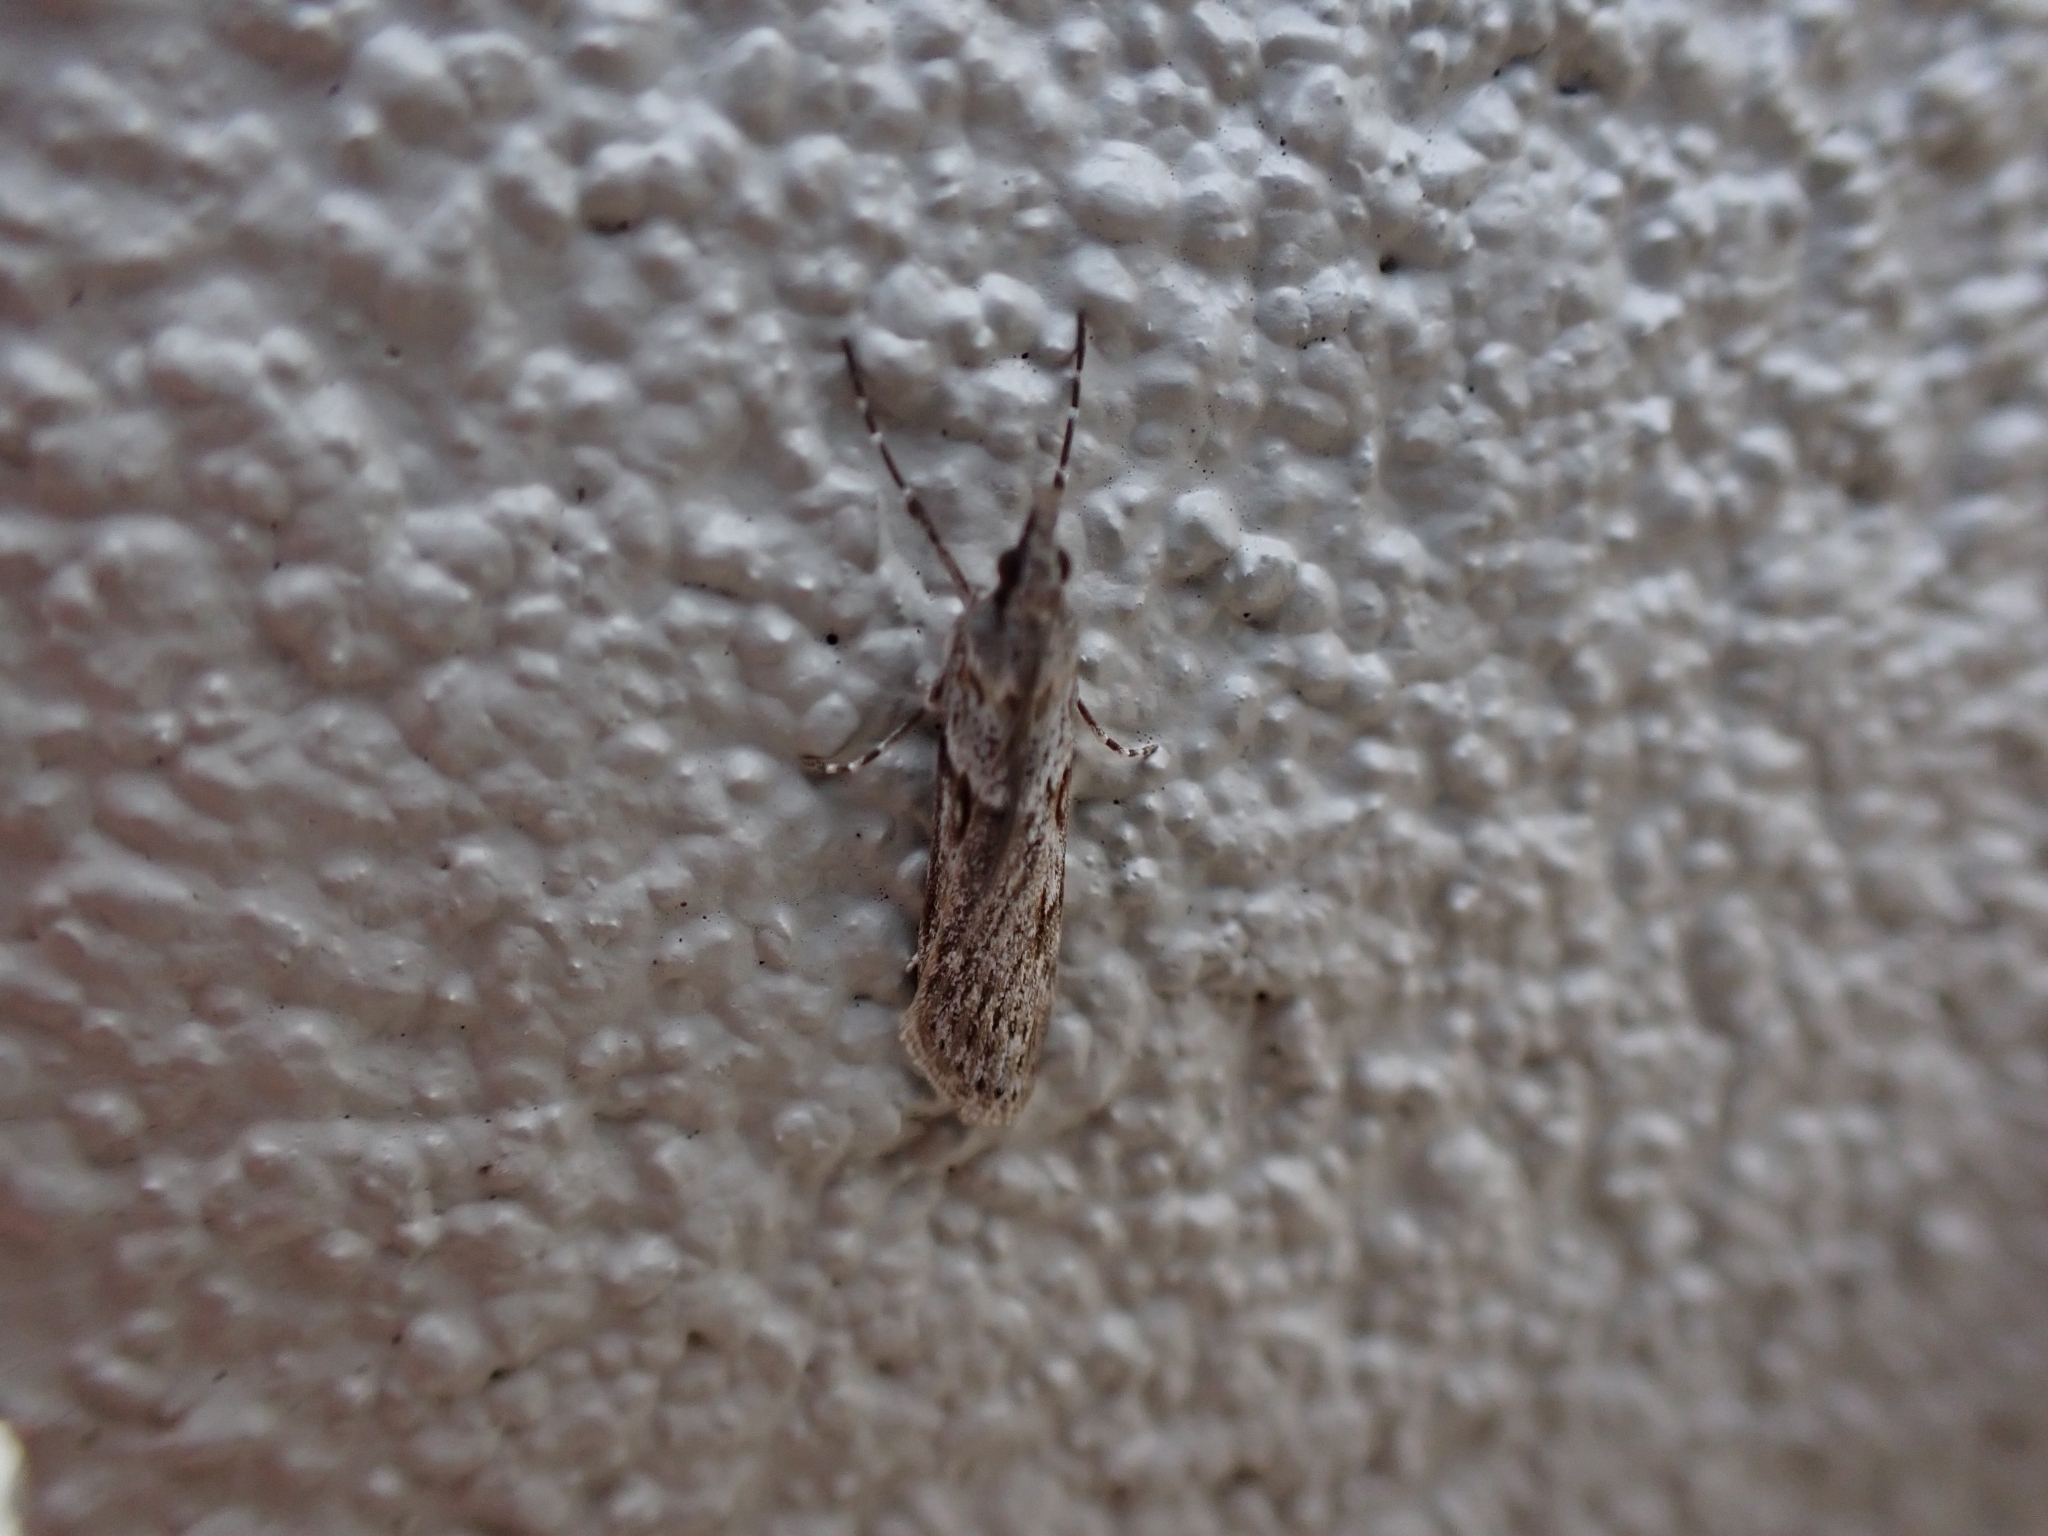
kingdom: Animalia
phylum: Arthropoda
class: Insecta
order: Lepidoptera
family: Crambidae
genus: Scoparia
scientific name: Scoparia halopis
